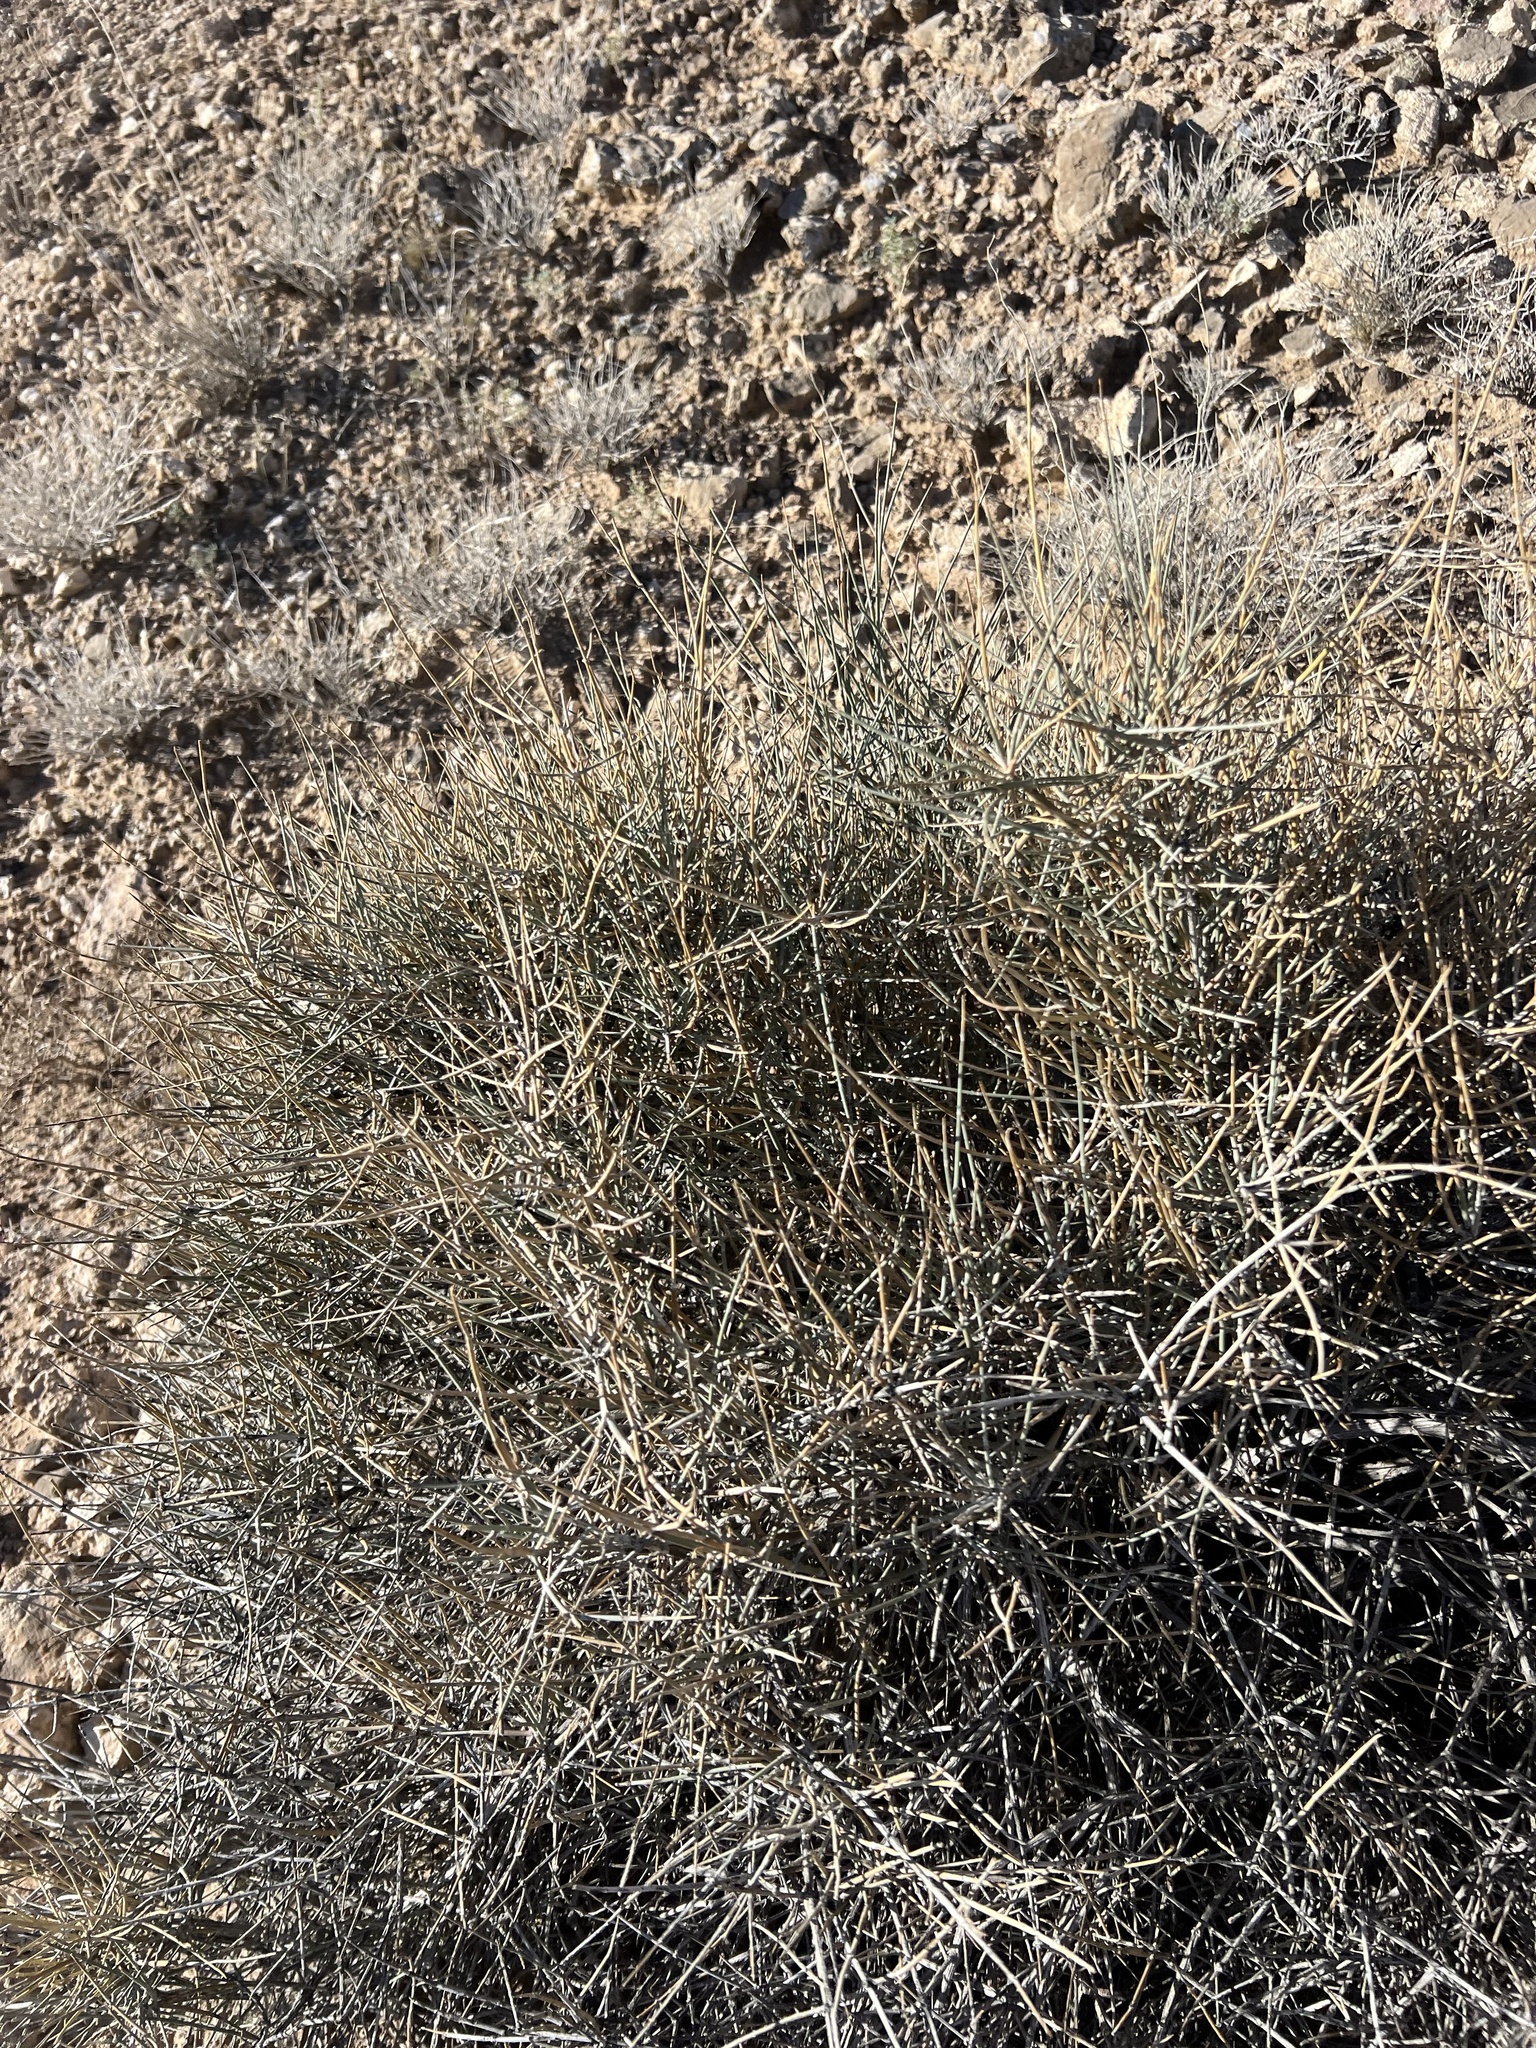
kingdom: Plantae
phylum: Tracheophyta
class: Gnetopsida
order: Ephedrales
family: Ephedraceae
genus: Ephedra
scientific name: Ephedra nevadensis
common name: Gray ephedra
